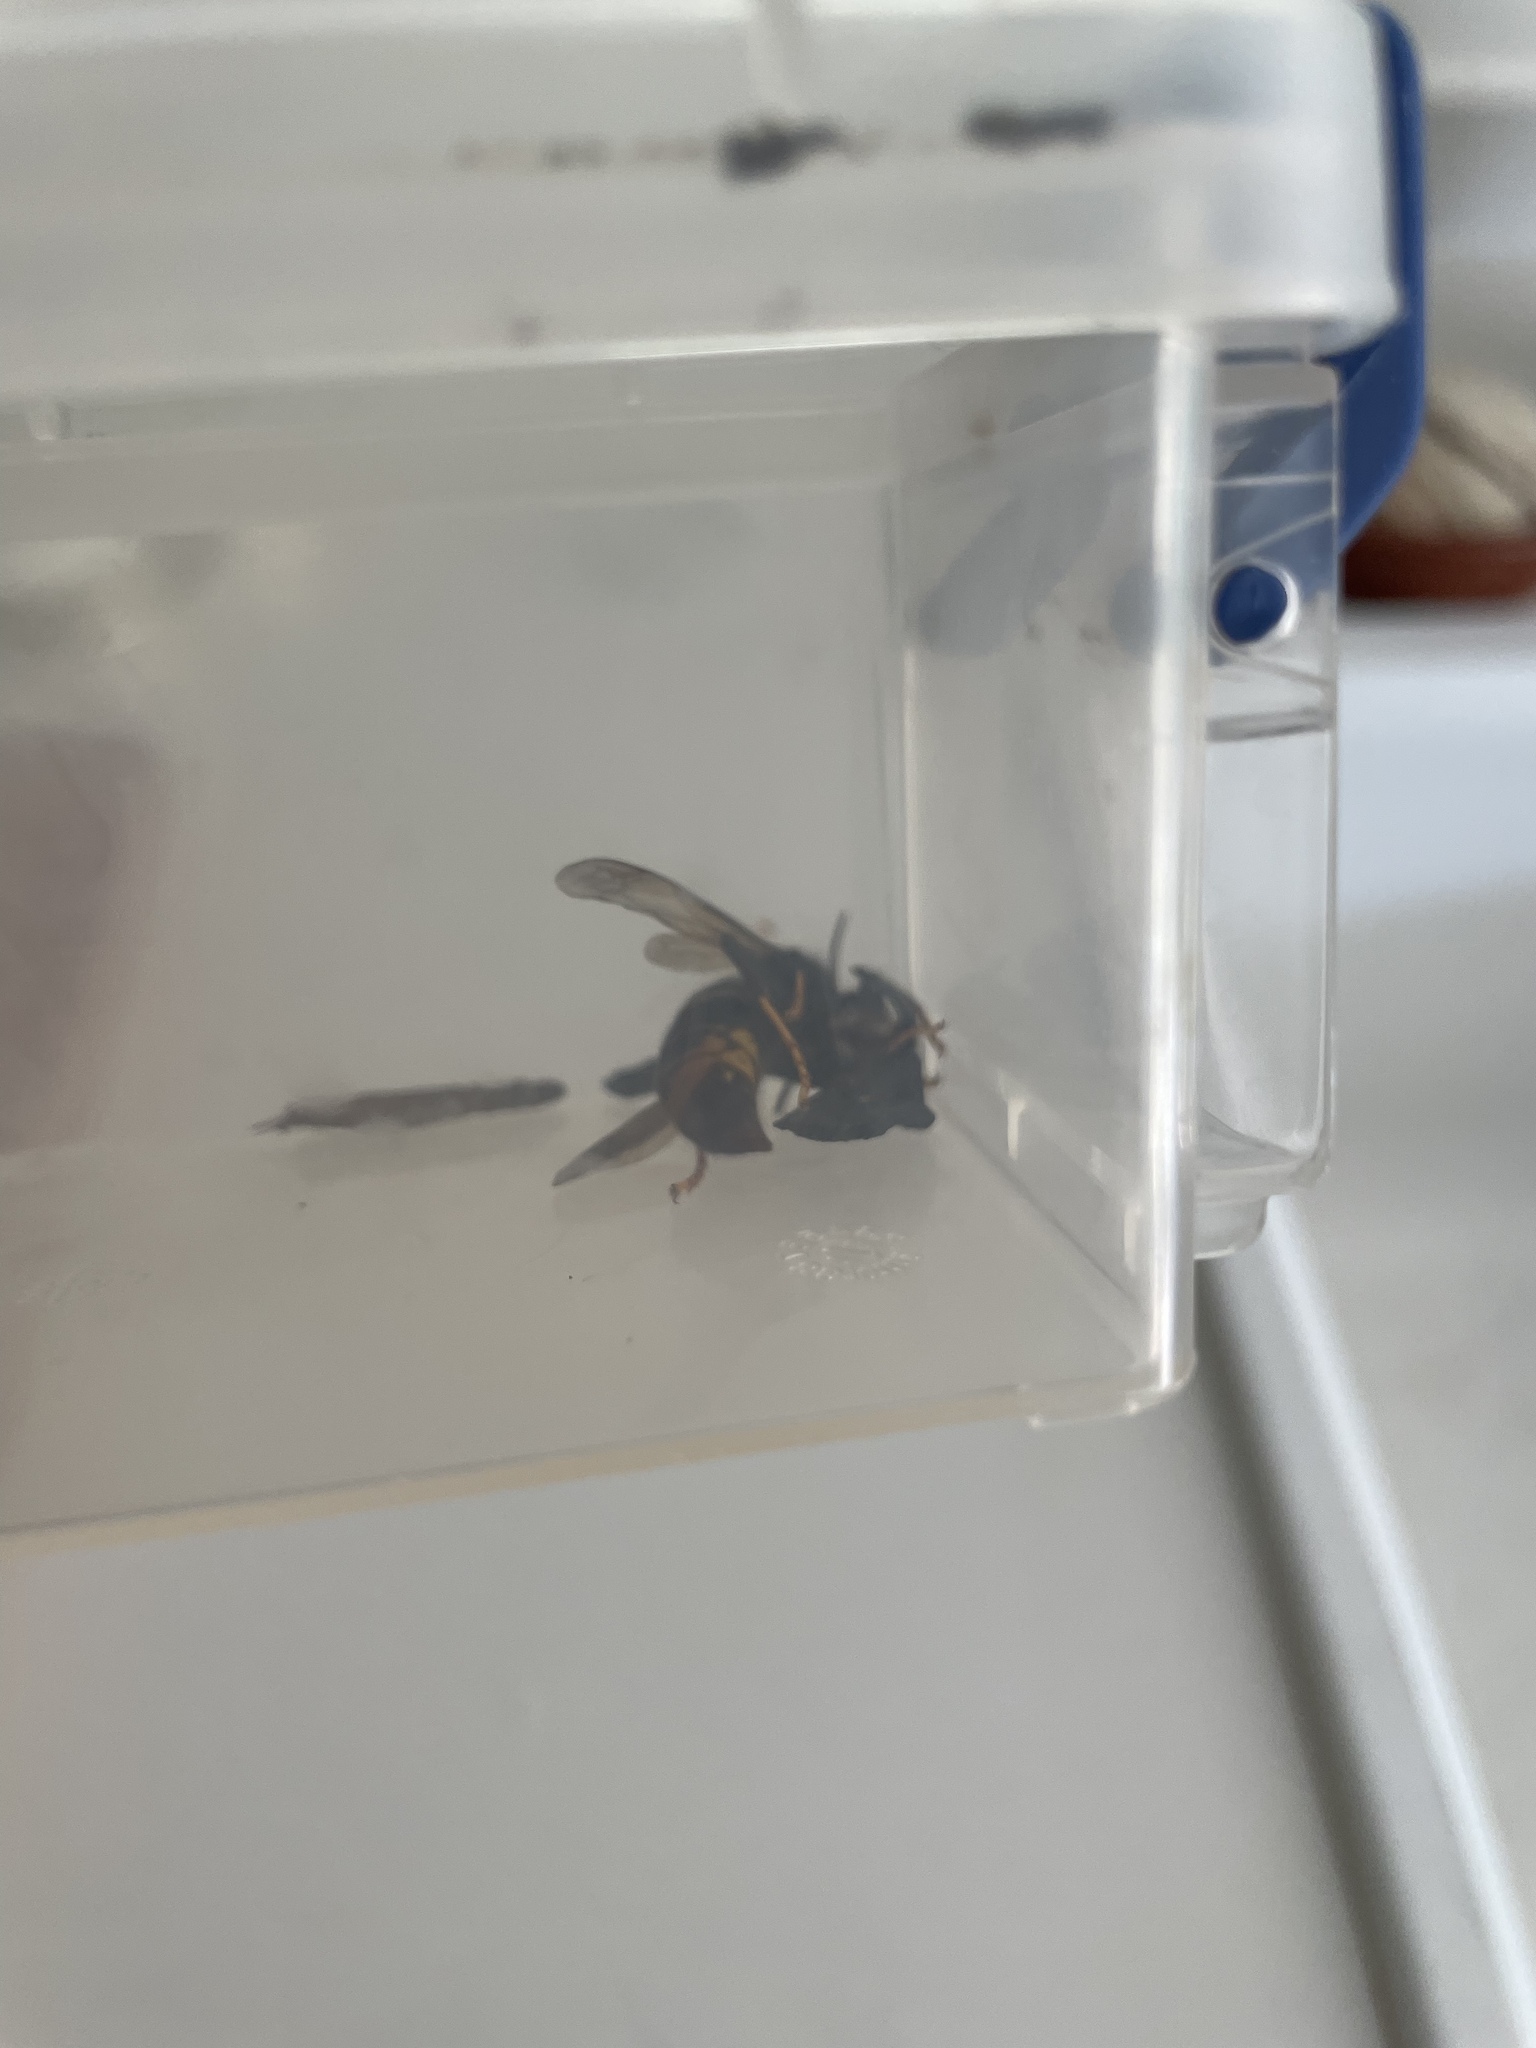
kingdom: Animalia
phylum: Arthropoda
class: Insecta
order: Hymenoptera
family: Vespidae
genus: Vespa
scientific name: Vespa velutina
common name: Asian hornet
